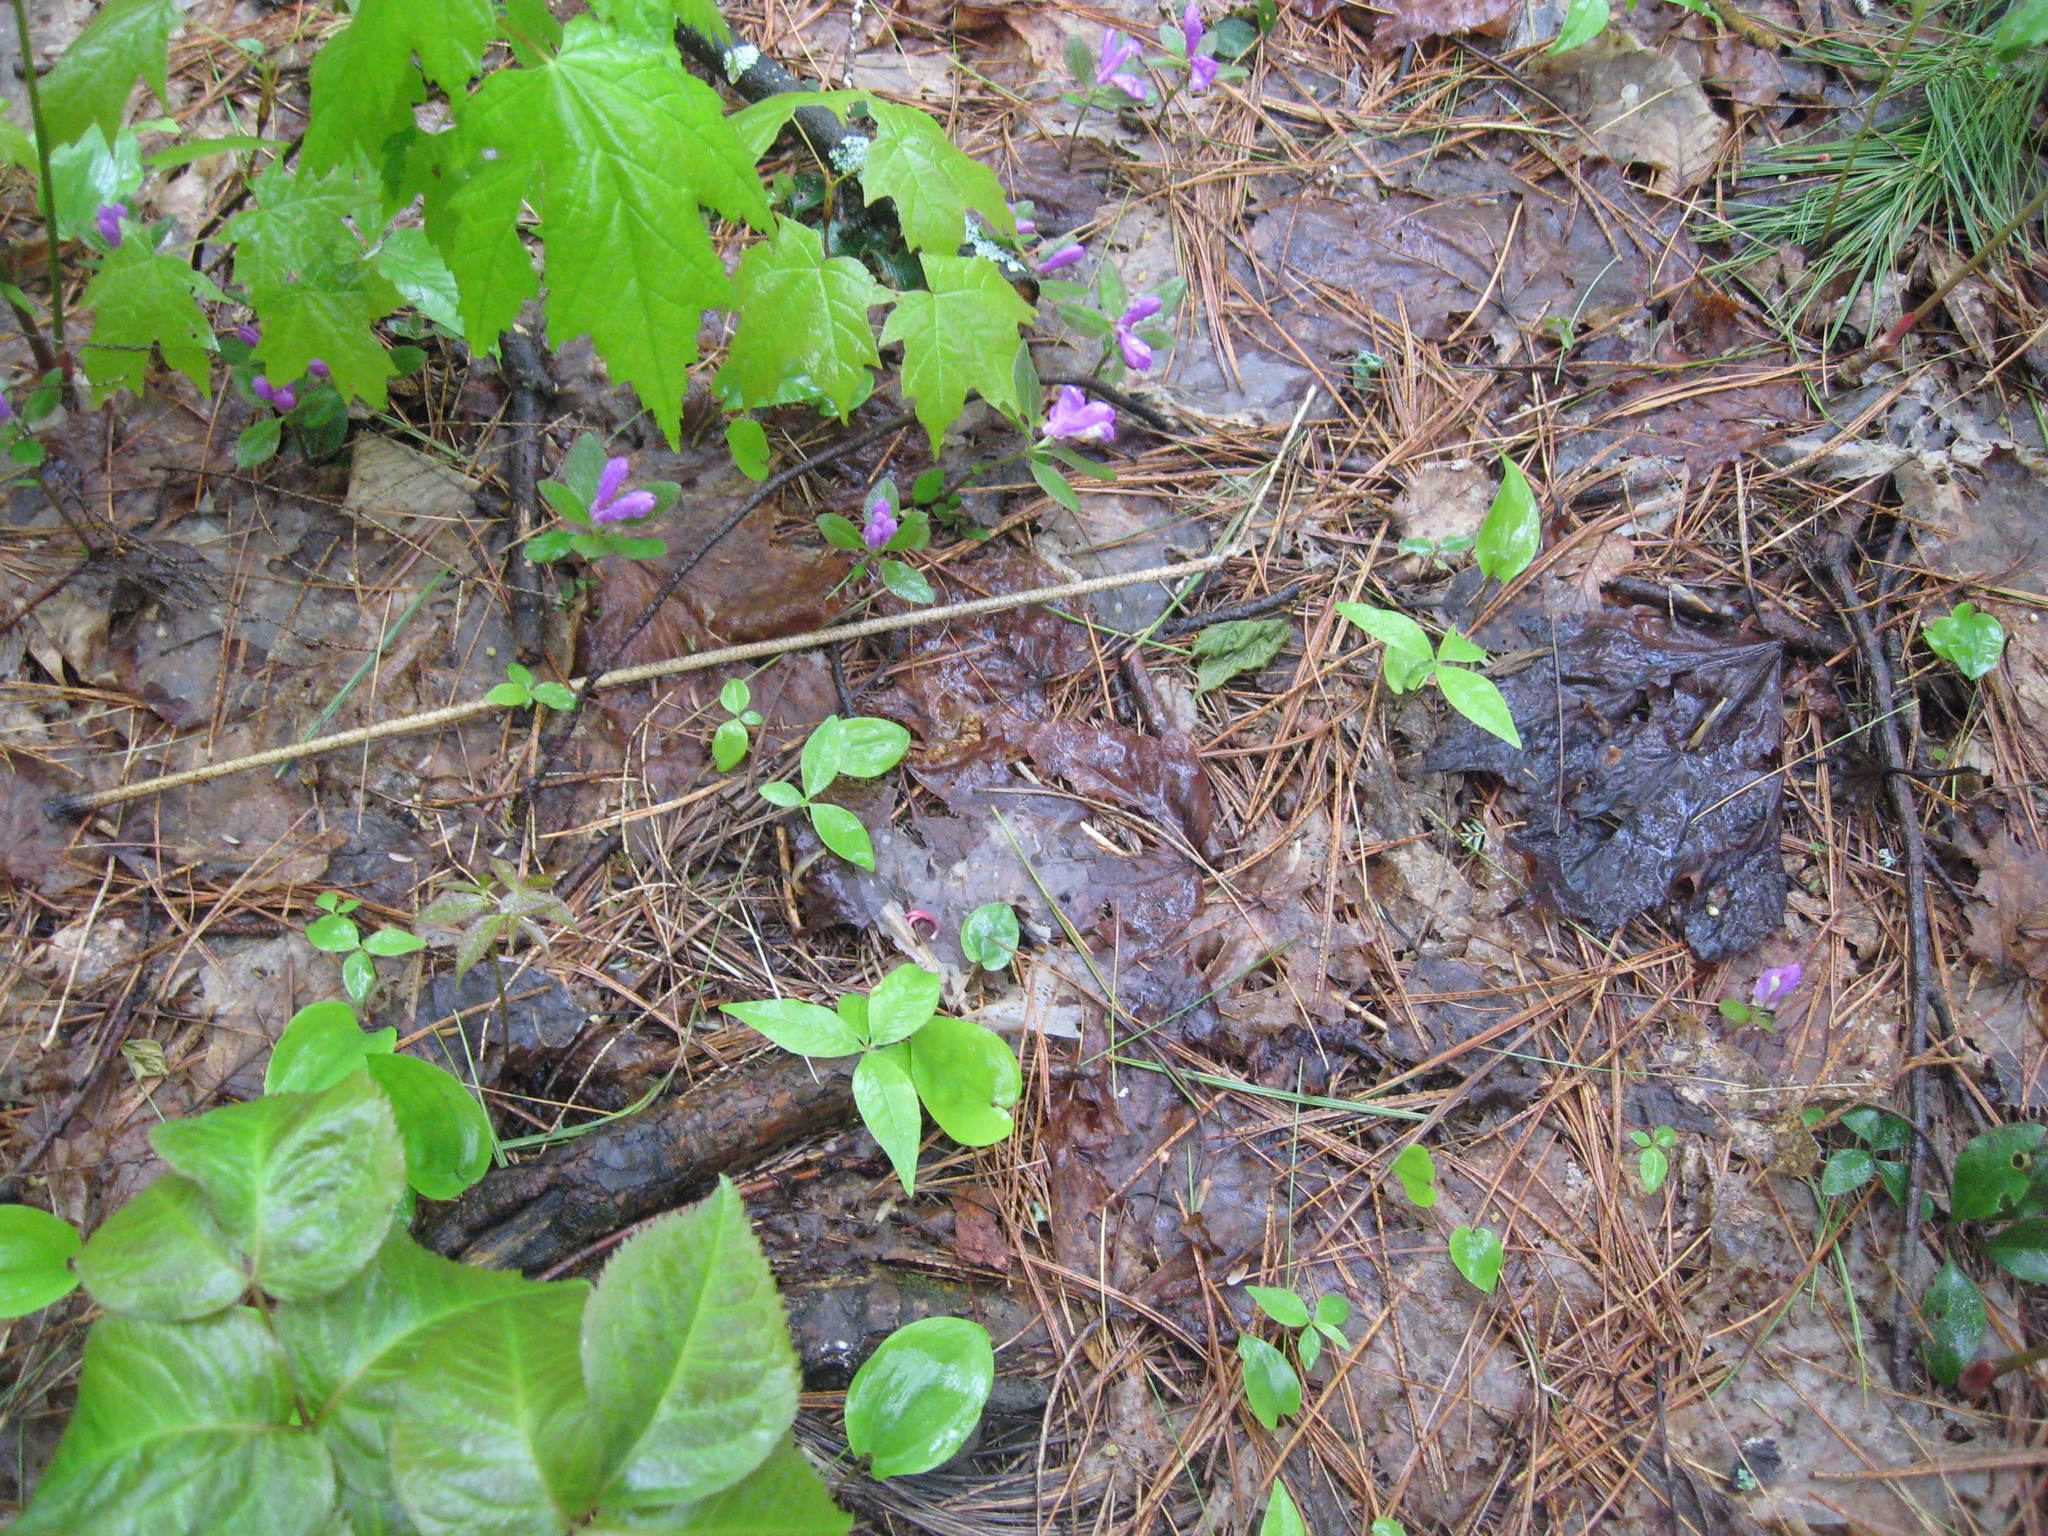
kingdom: Plantae
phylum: Tracheophyta
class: Magnoliopsida
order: Fabales
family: Polygalaceae
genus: Polygaloides
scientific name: Polygaloides paucifolia
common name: Bird-on-the-wing
